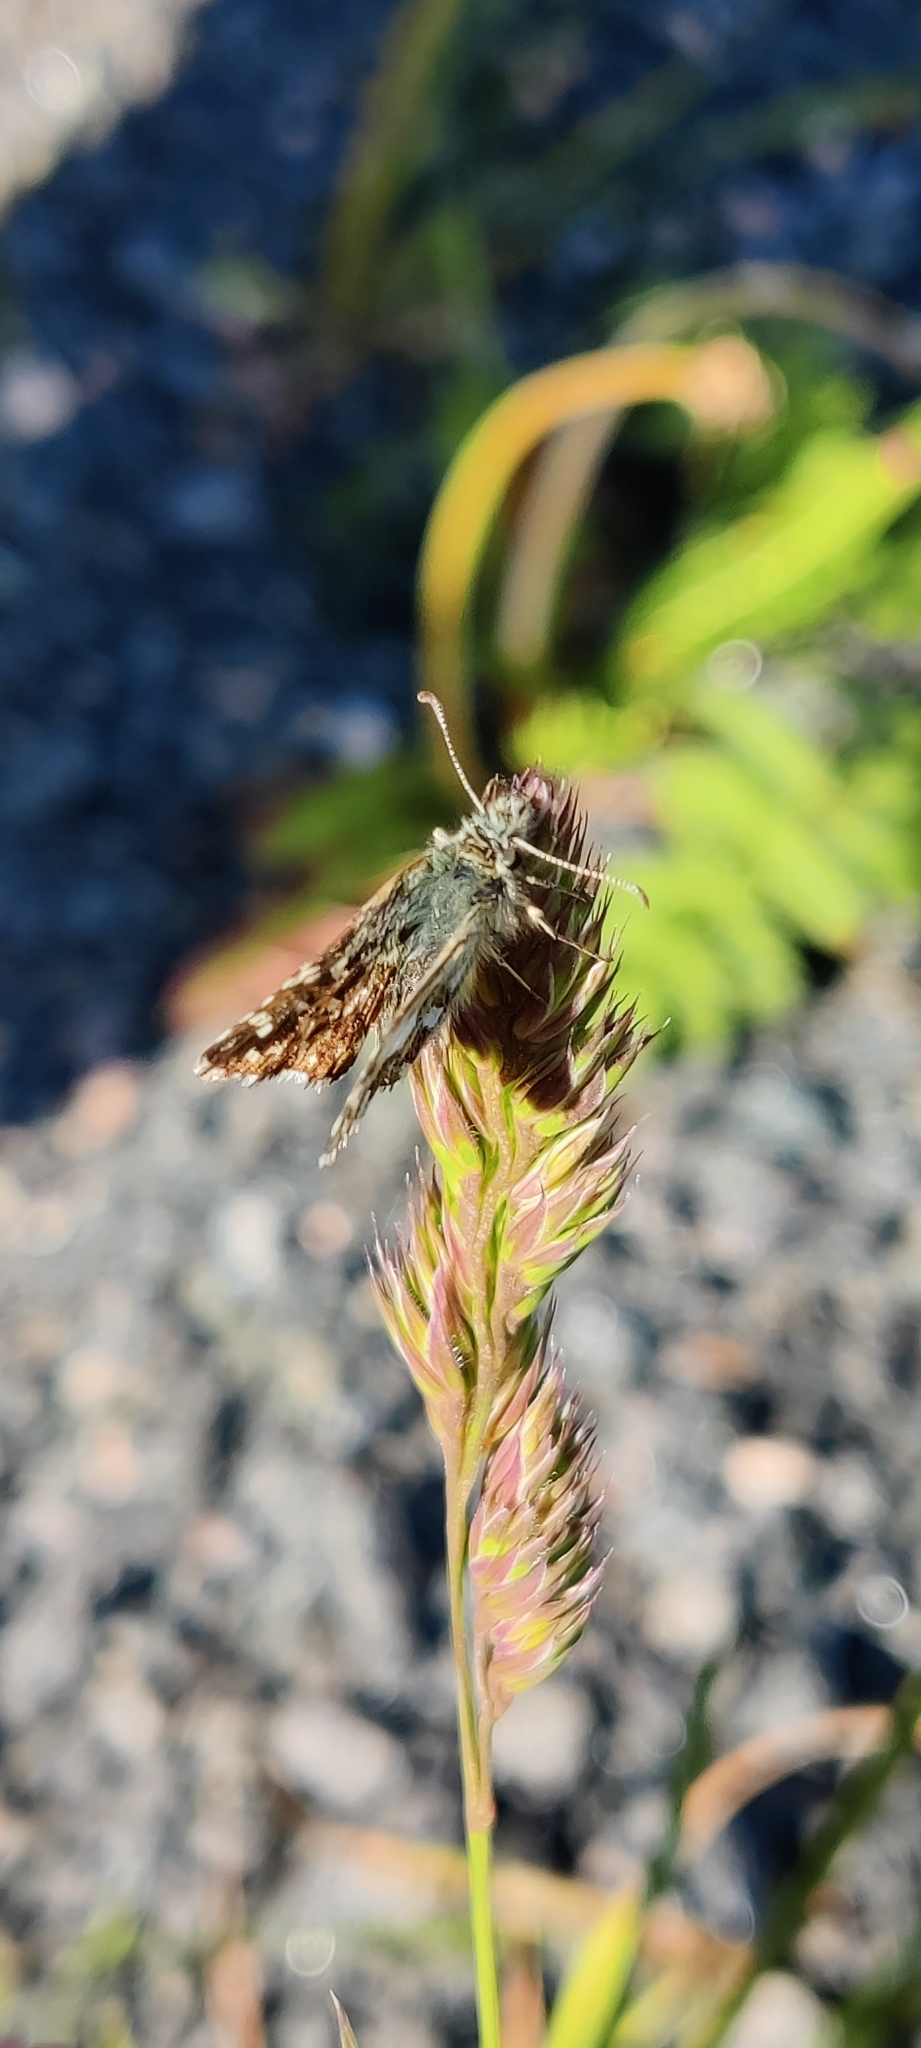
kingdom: Animalia
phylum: Arthropoda
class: Insecta
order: Lepidoptera
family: Hesperiidae
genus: Pyrgus
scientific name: Pyrgus malvae
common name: Grizzled skipper
